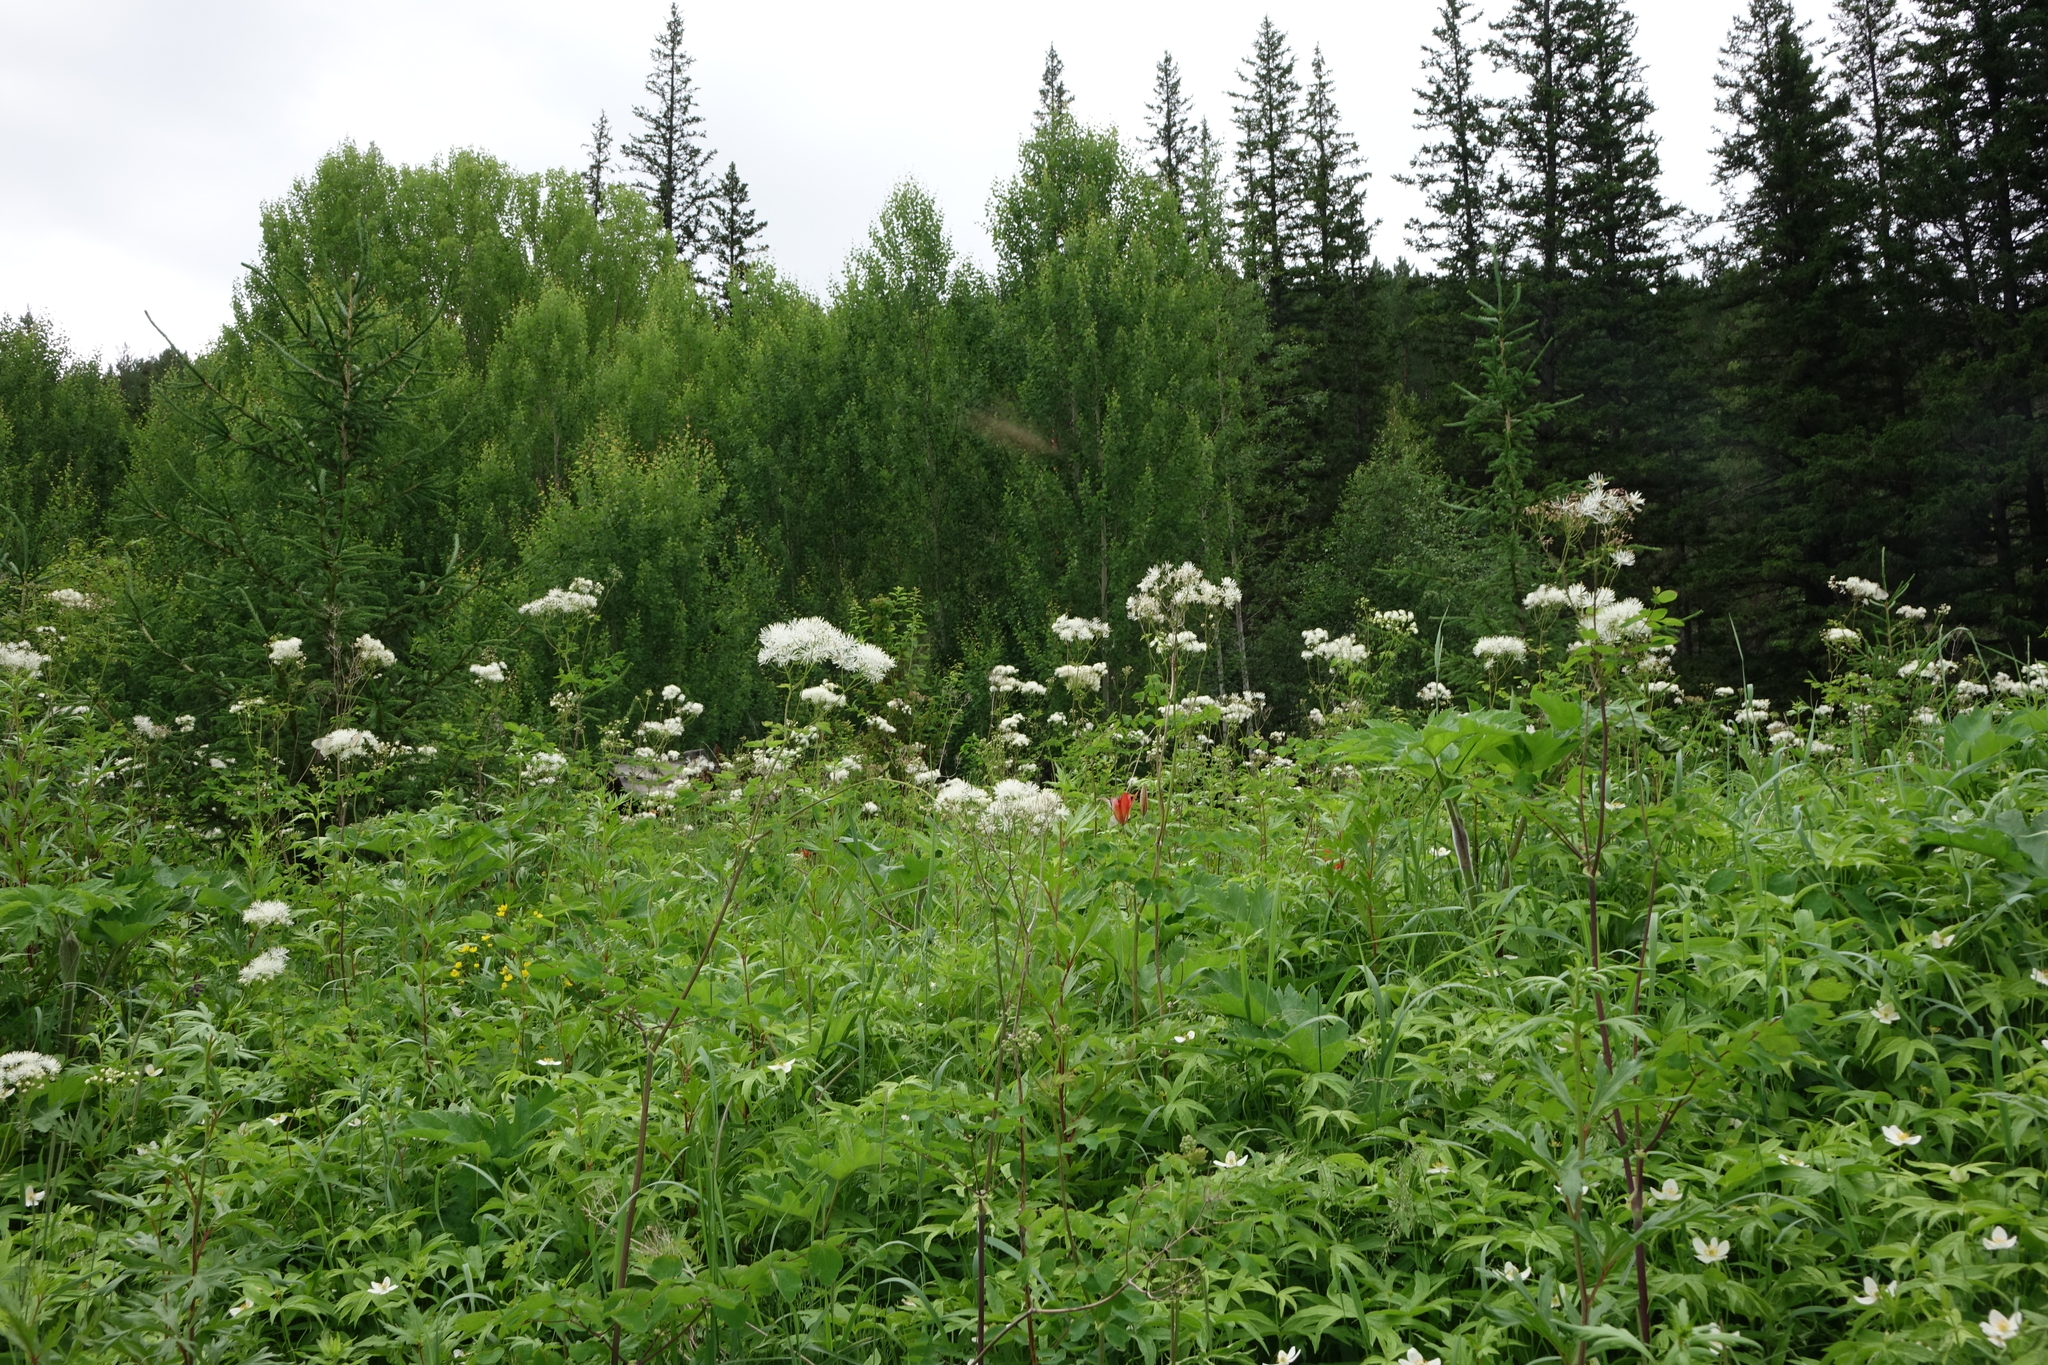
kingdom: Plantae
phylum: Tracheophyta
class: Magnoliopsida
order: Malpighiales
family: Salicaceae
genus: Populus
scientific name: Populus tremula
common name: European aspen
